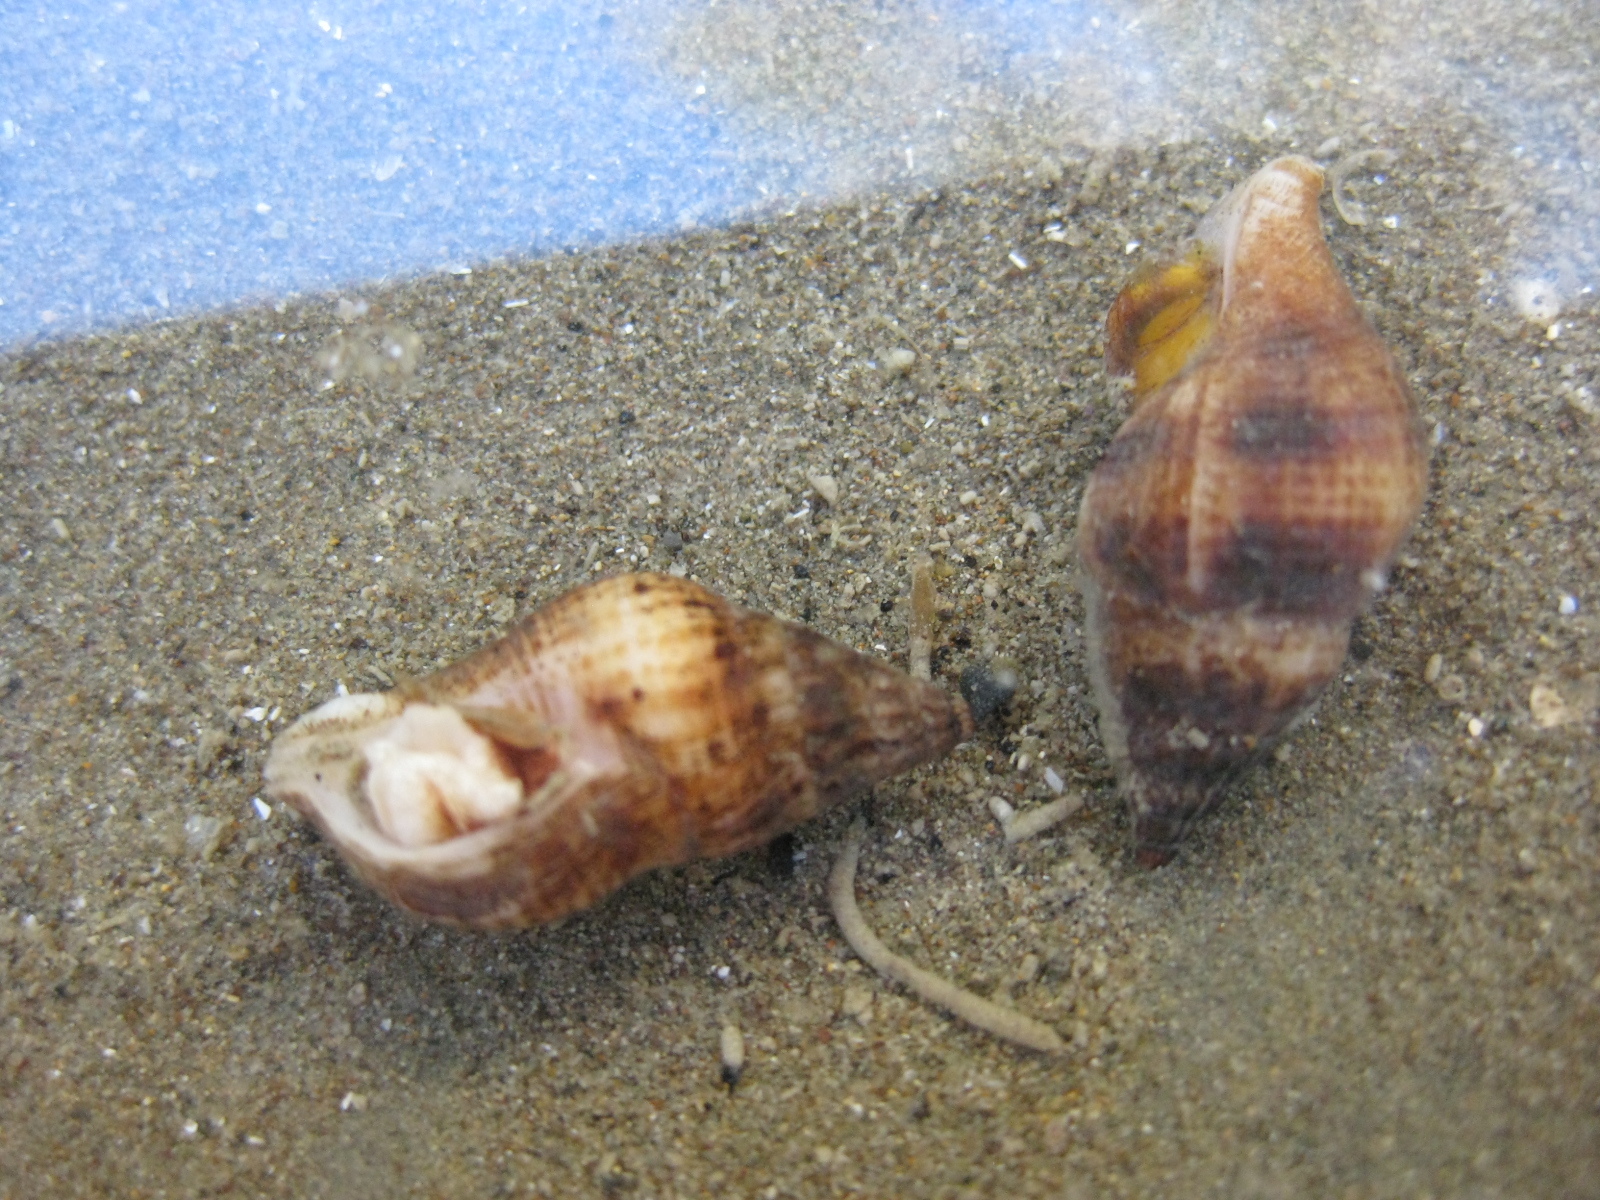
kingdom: Animalia
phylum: Mollusca
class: Gastropoda
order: Neogastropoda
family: Tudiclidae
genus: Buccinulum
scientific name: Buccinulum vittatum
